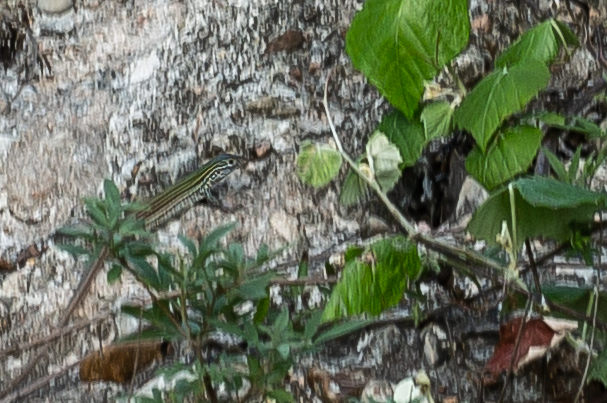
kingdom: Animalia
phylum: Chordata
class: Squamata
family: Teiidae
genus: Aspidoscelis
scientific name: Aspidoscelis gularis
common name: Eastern spotted whiptail
